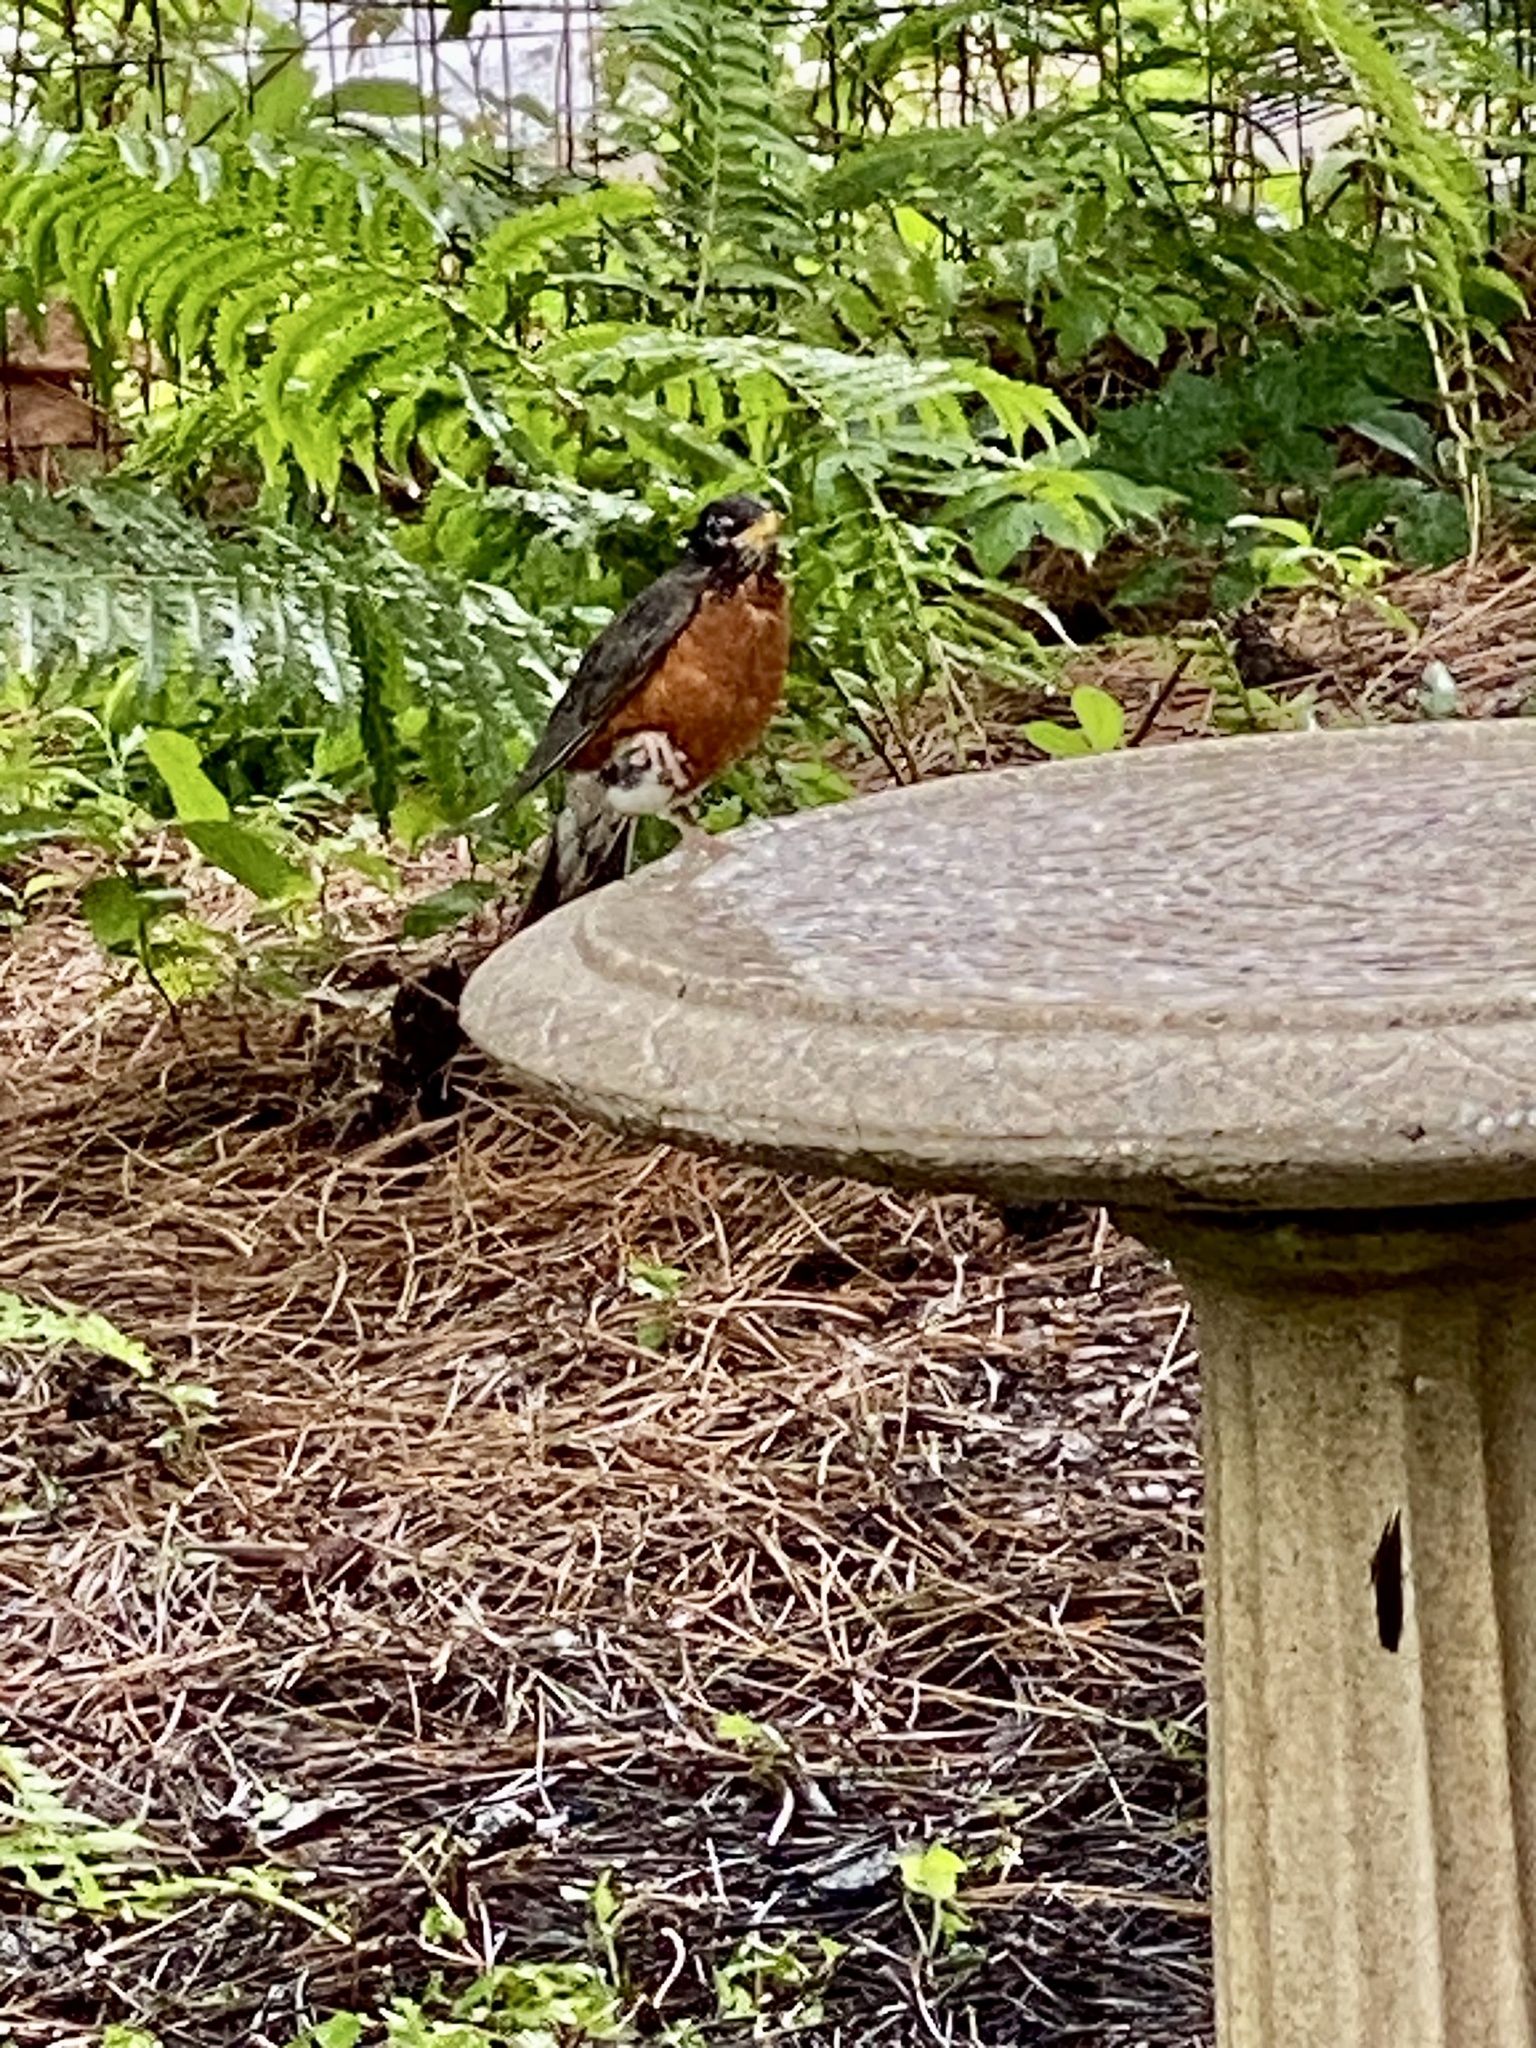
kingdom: Animalia
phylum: Chordata
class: Aves
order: Passeriformes
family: Turdidae
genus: Turdus
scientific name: Turdus migratorius
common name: American robin
